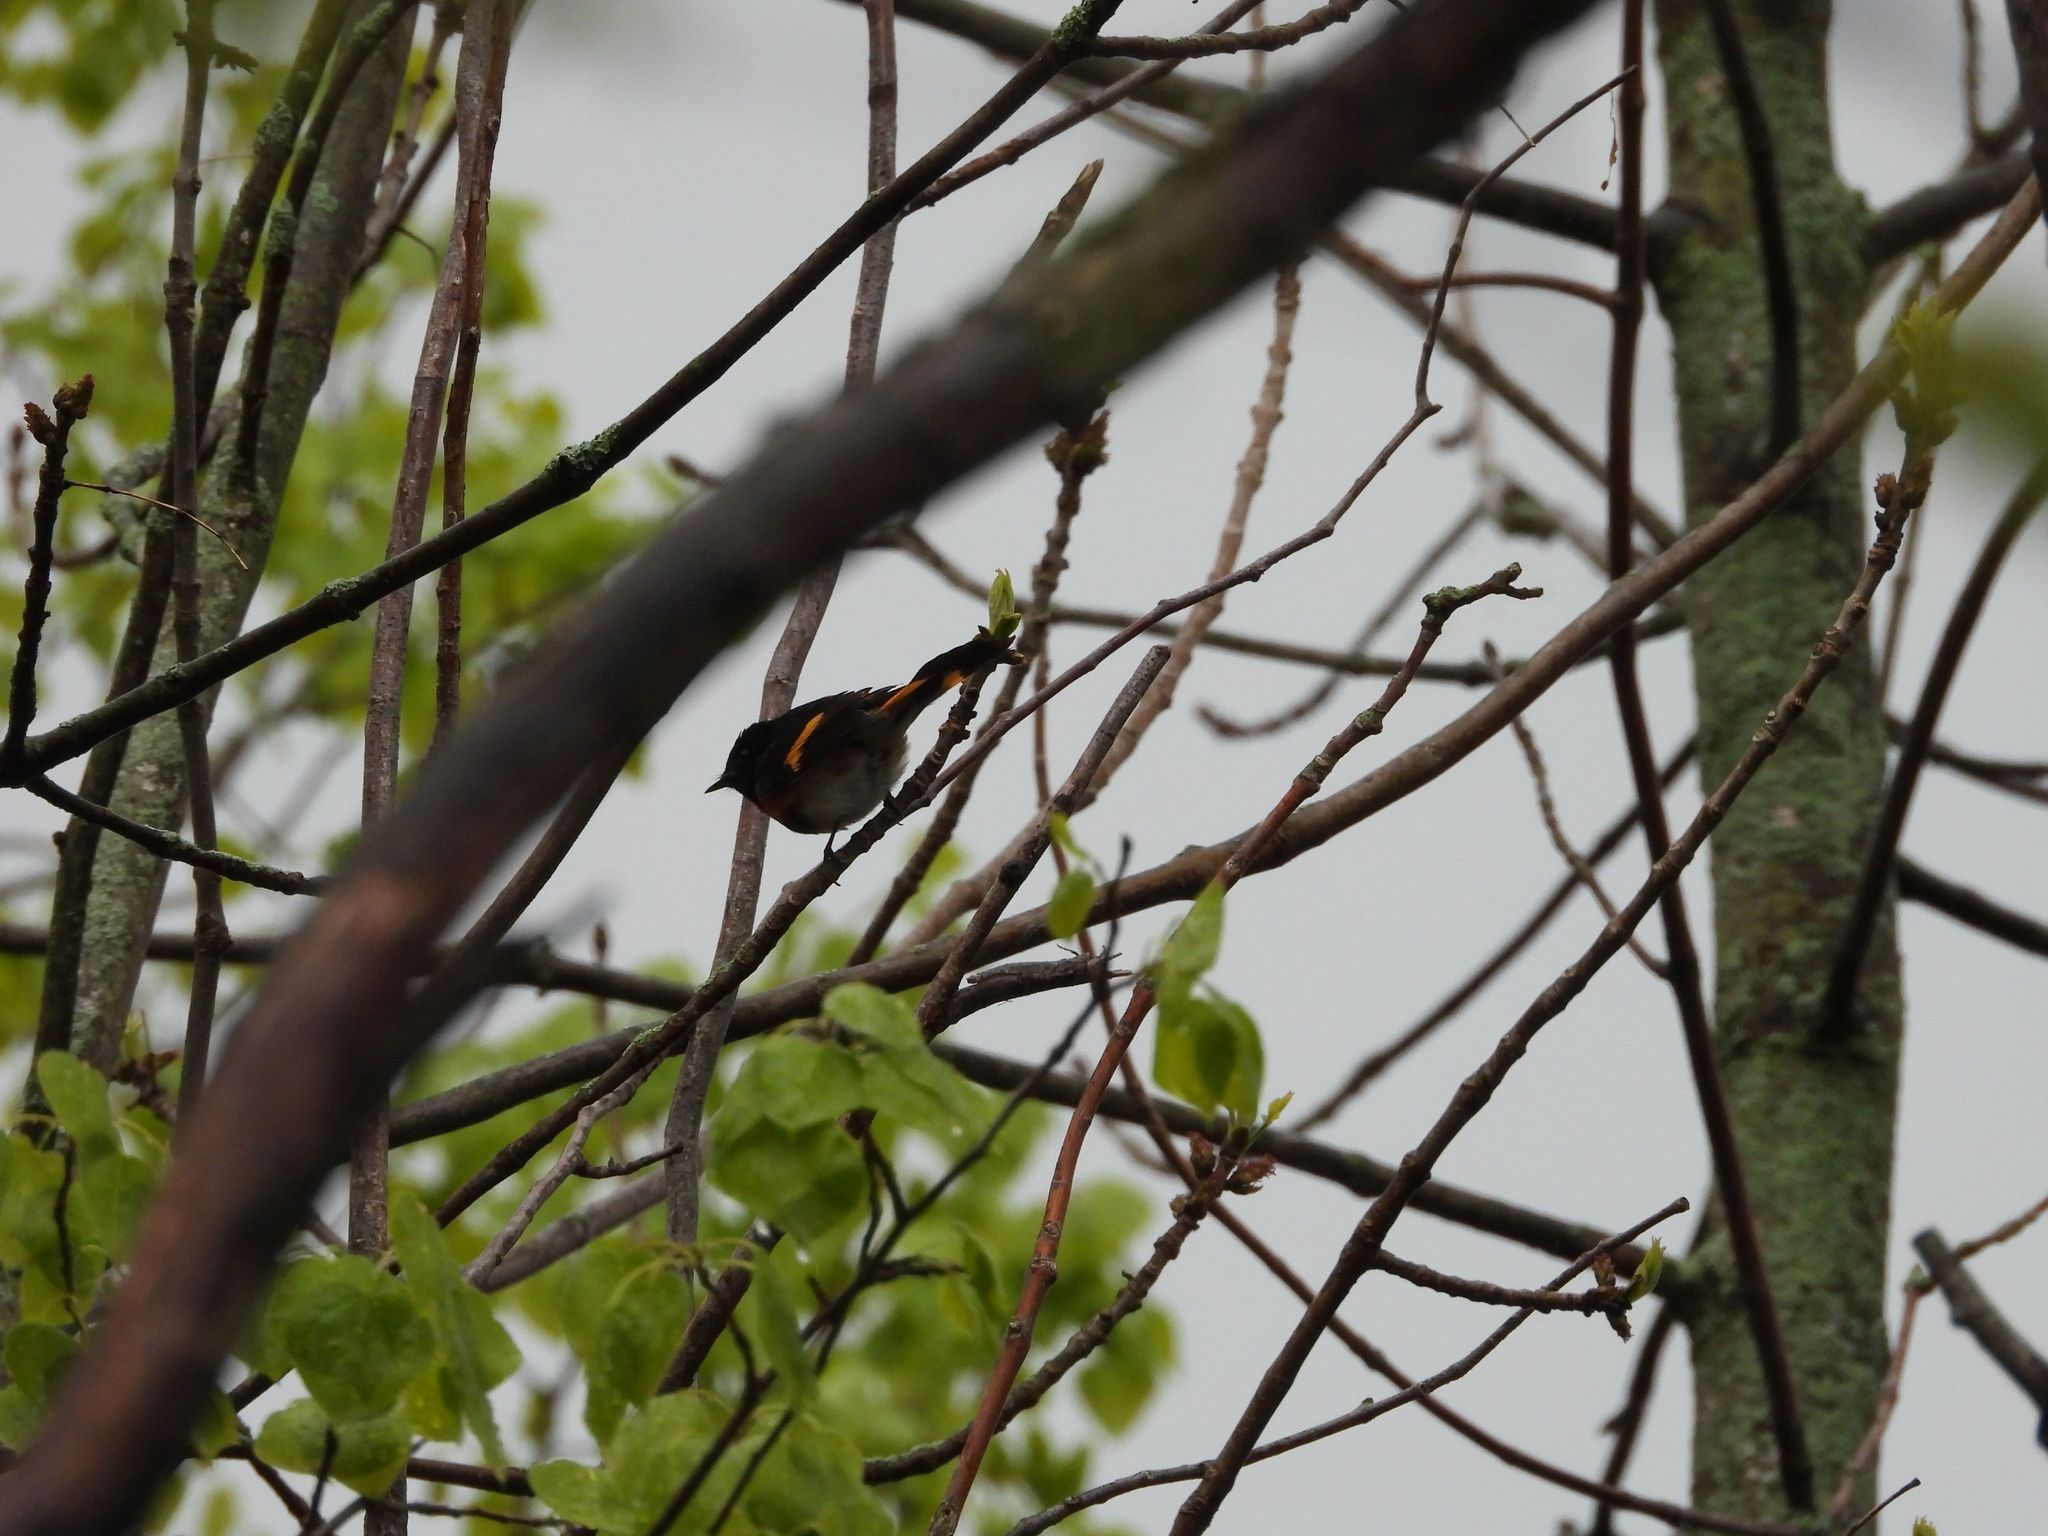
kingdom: Animalia
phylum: Chordata
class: Aves
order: Passeriformes
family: Parulidae
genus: Setophaga
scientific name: Setophaga ruticilla
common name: American redstart
